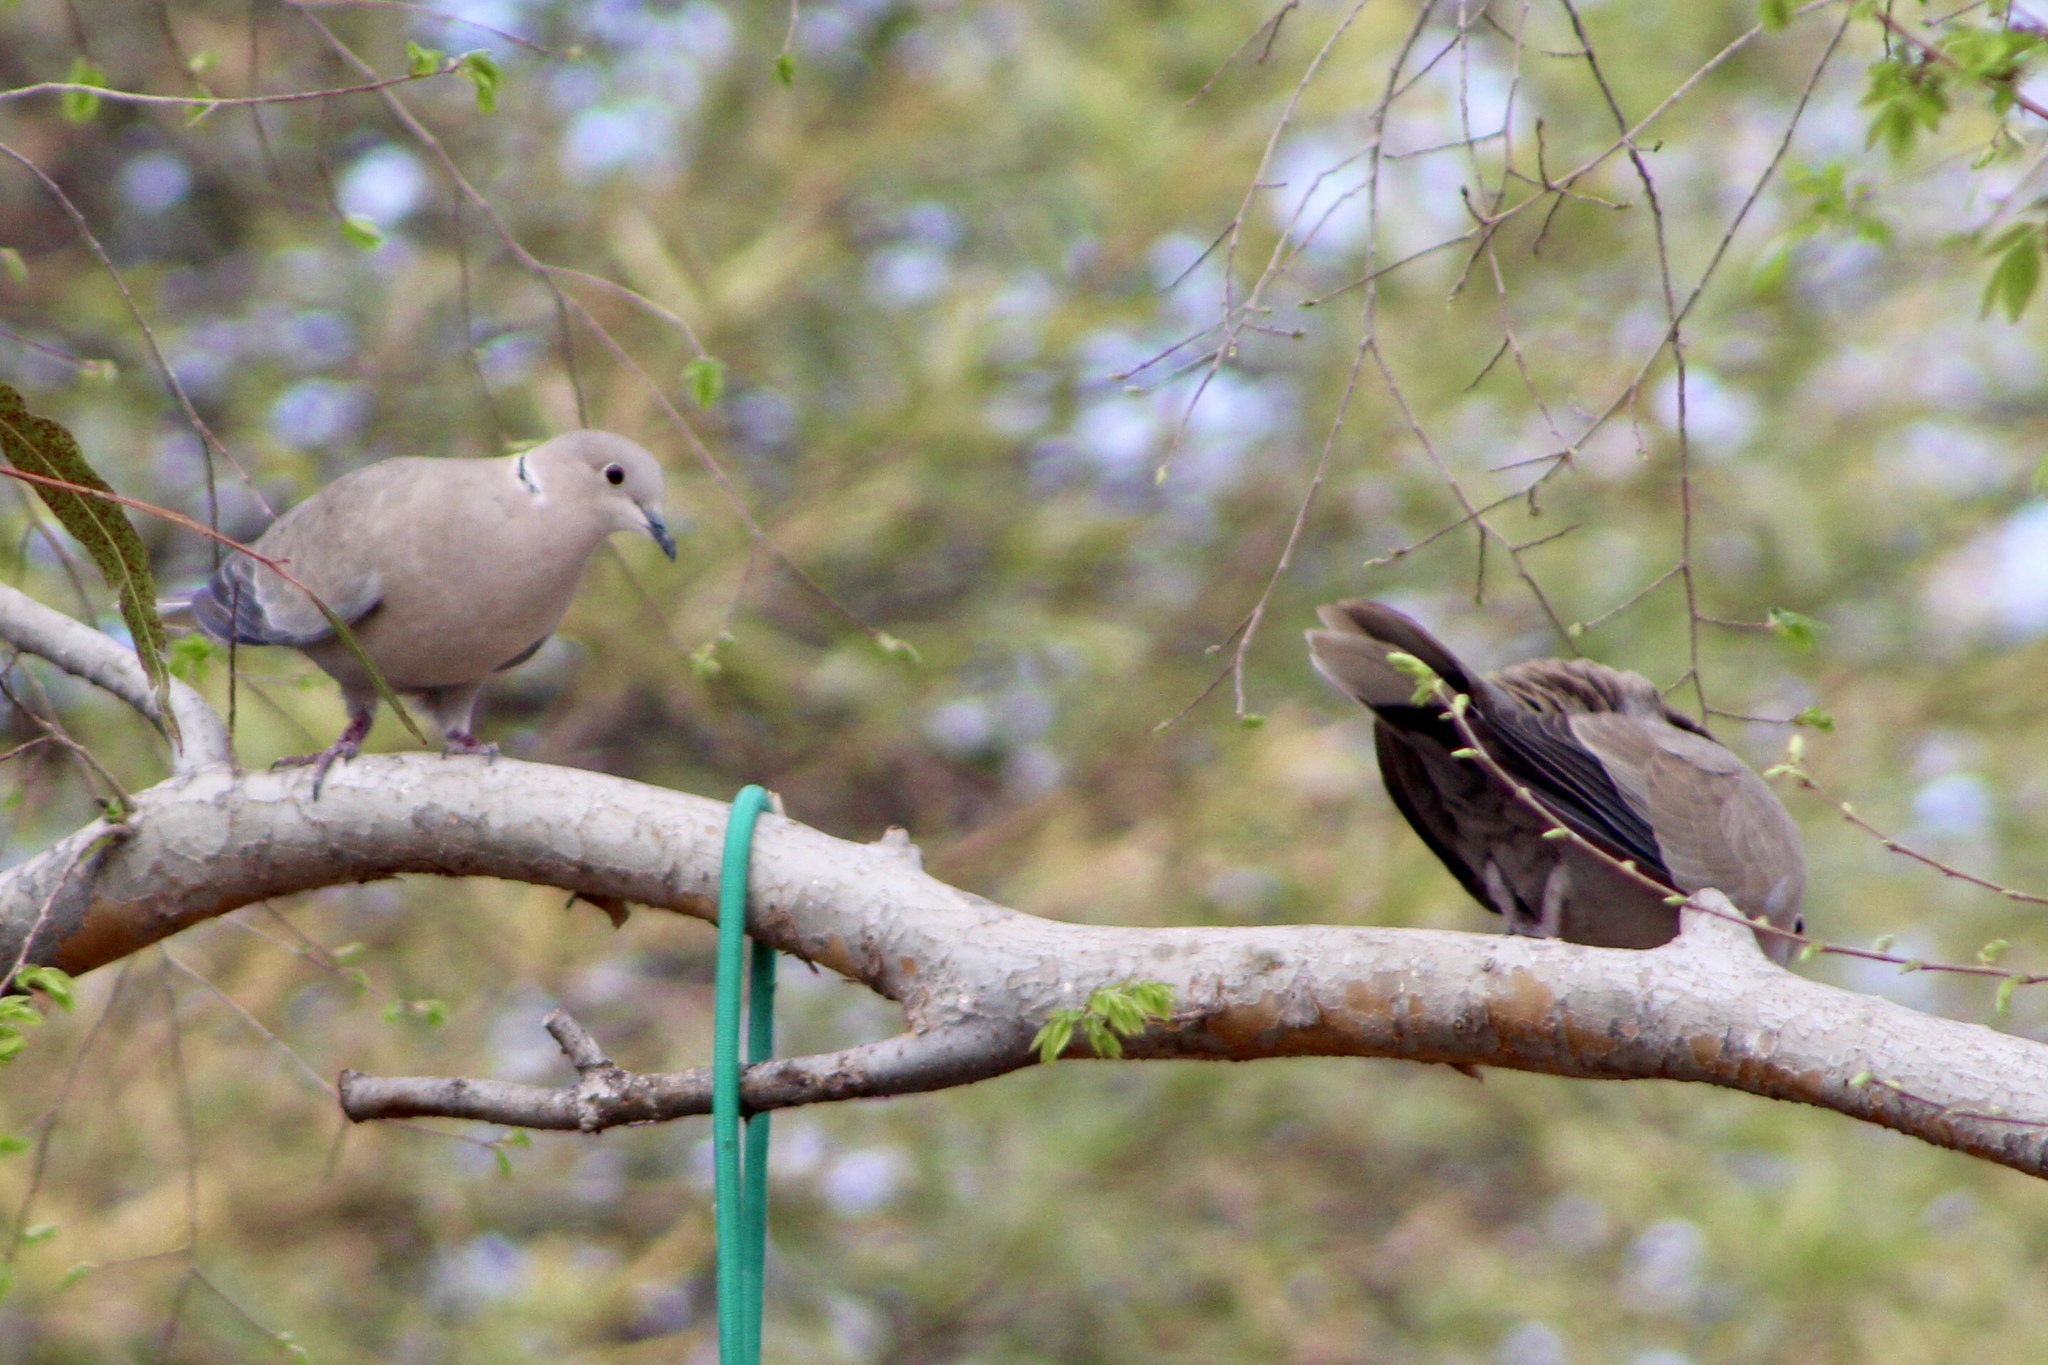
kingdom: Animalia
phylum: Chordata
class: Aves
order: Columbiformes
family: Columbidae
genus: Streptopelia
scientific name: Streptopelia decaocto
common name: Eurasian collared dove
